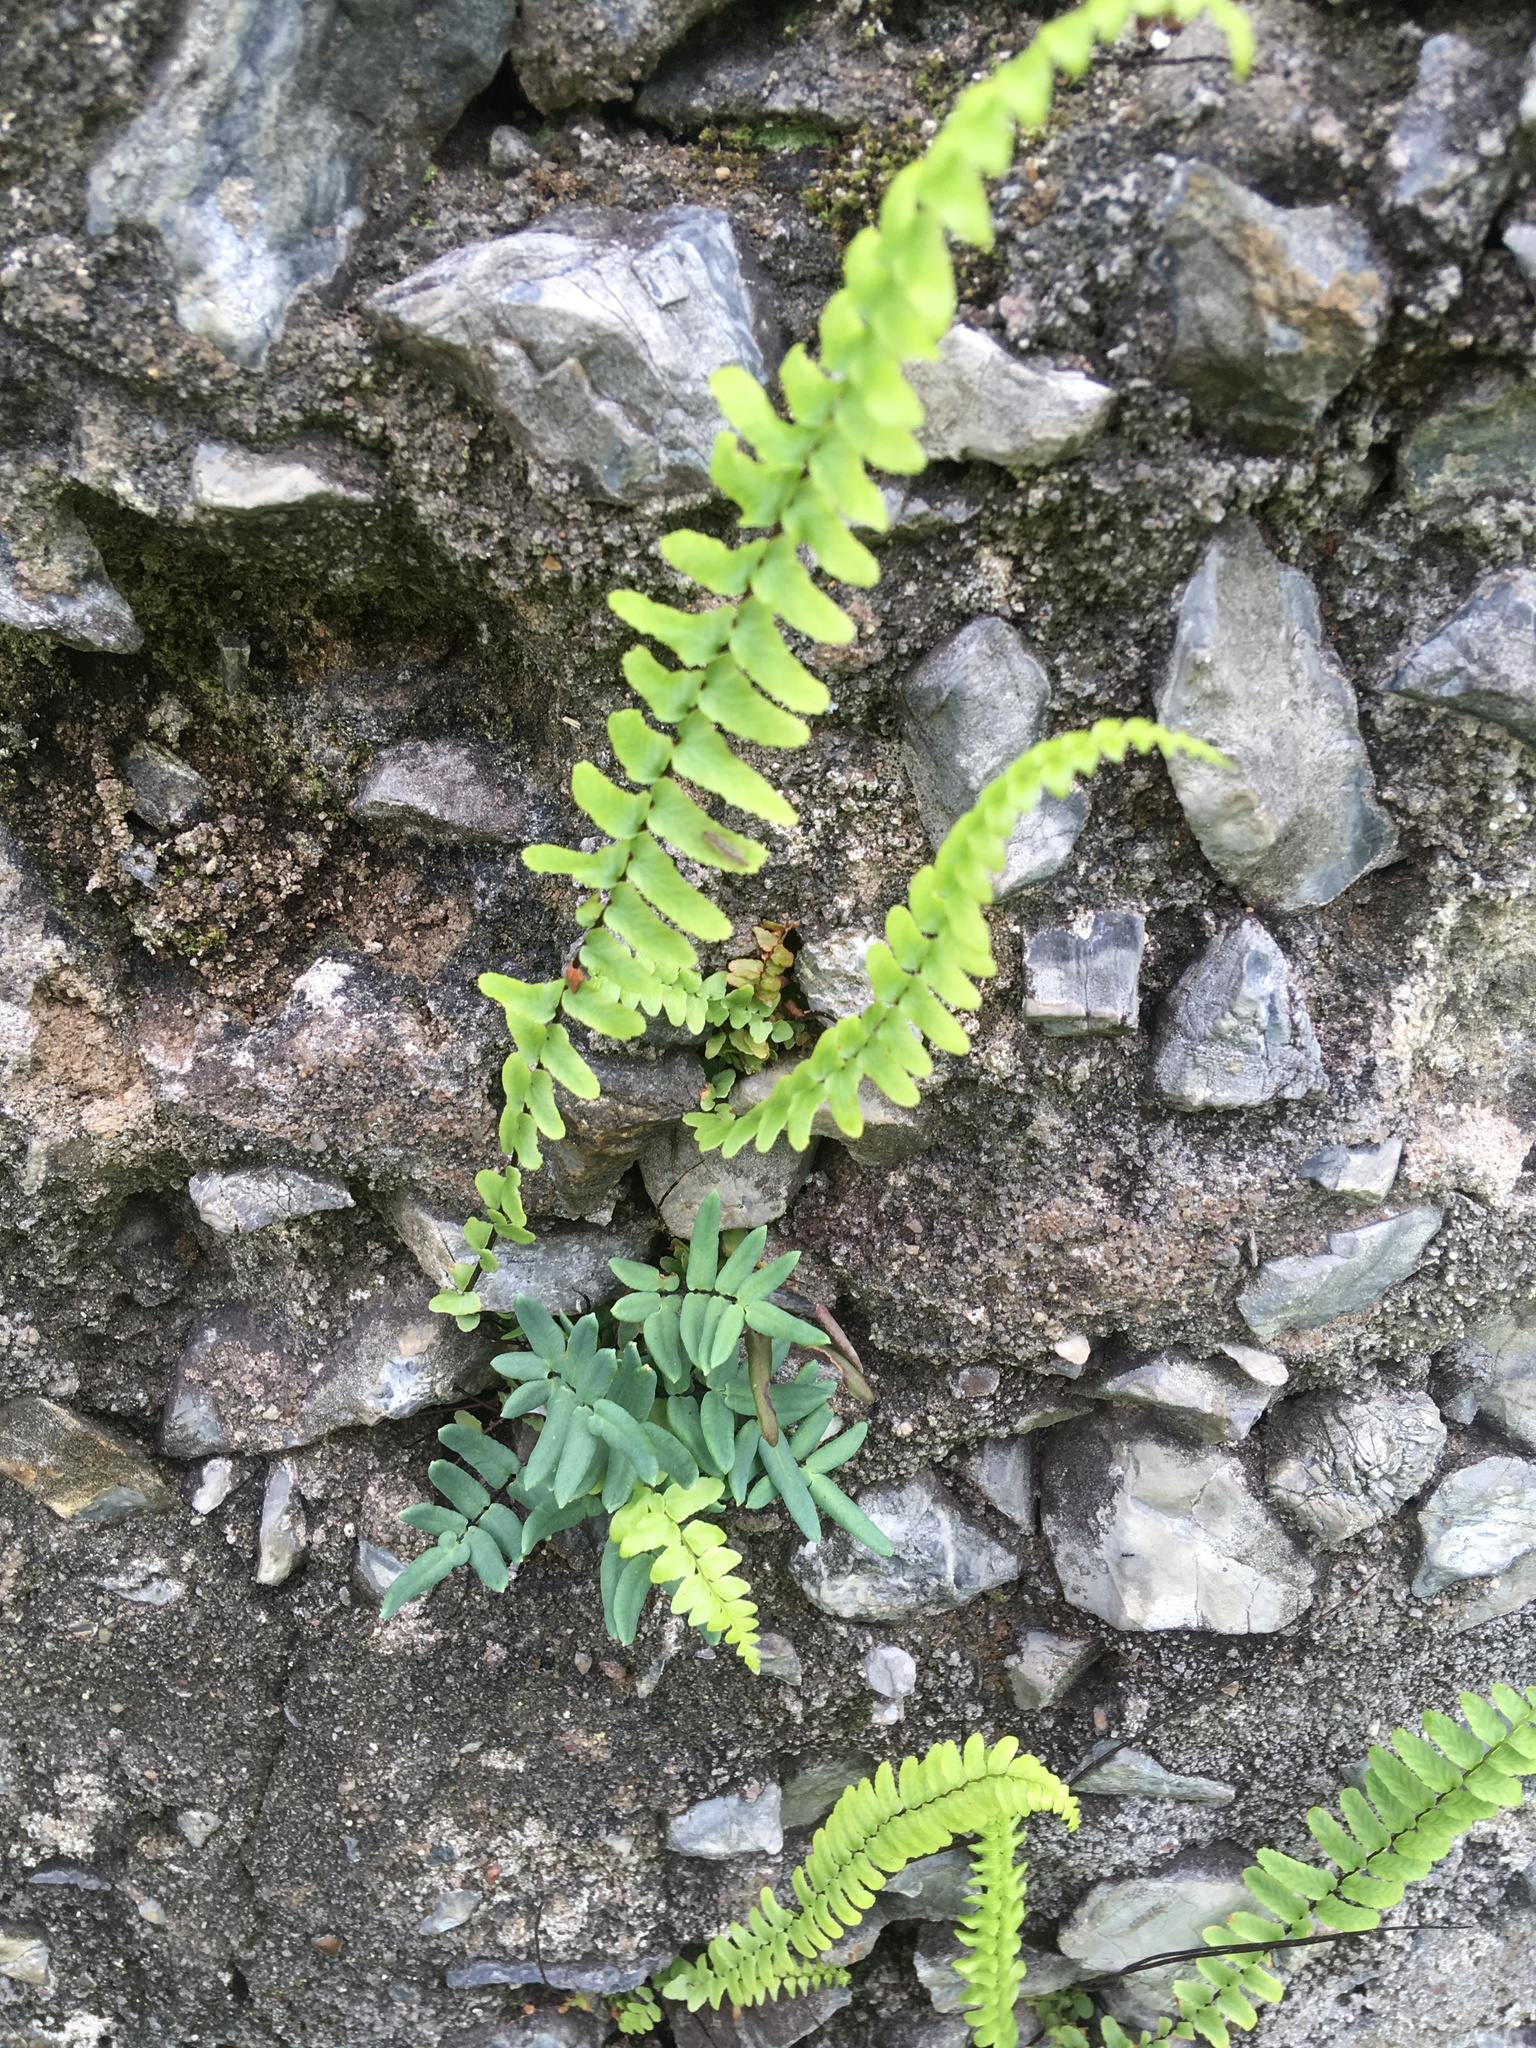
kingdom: Plantae
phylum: Tracheophyta
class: Polypodiopsida
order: Polypodiales
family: Pteridaceae
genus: Pellaea
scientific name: Pellaea glabella
